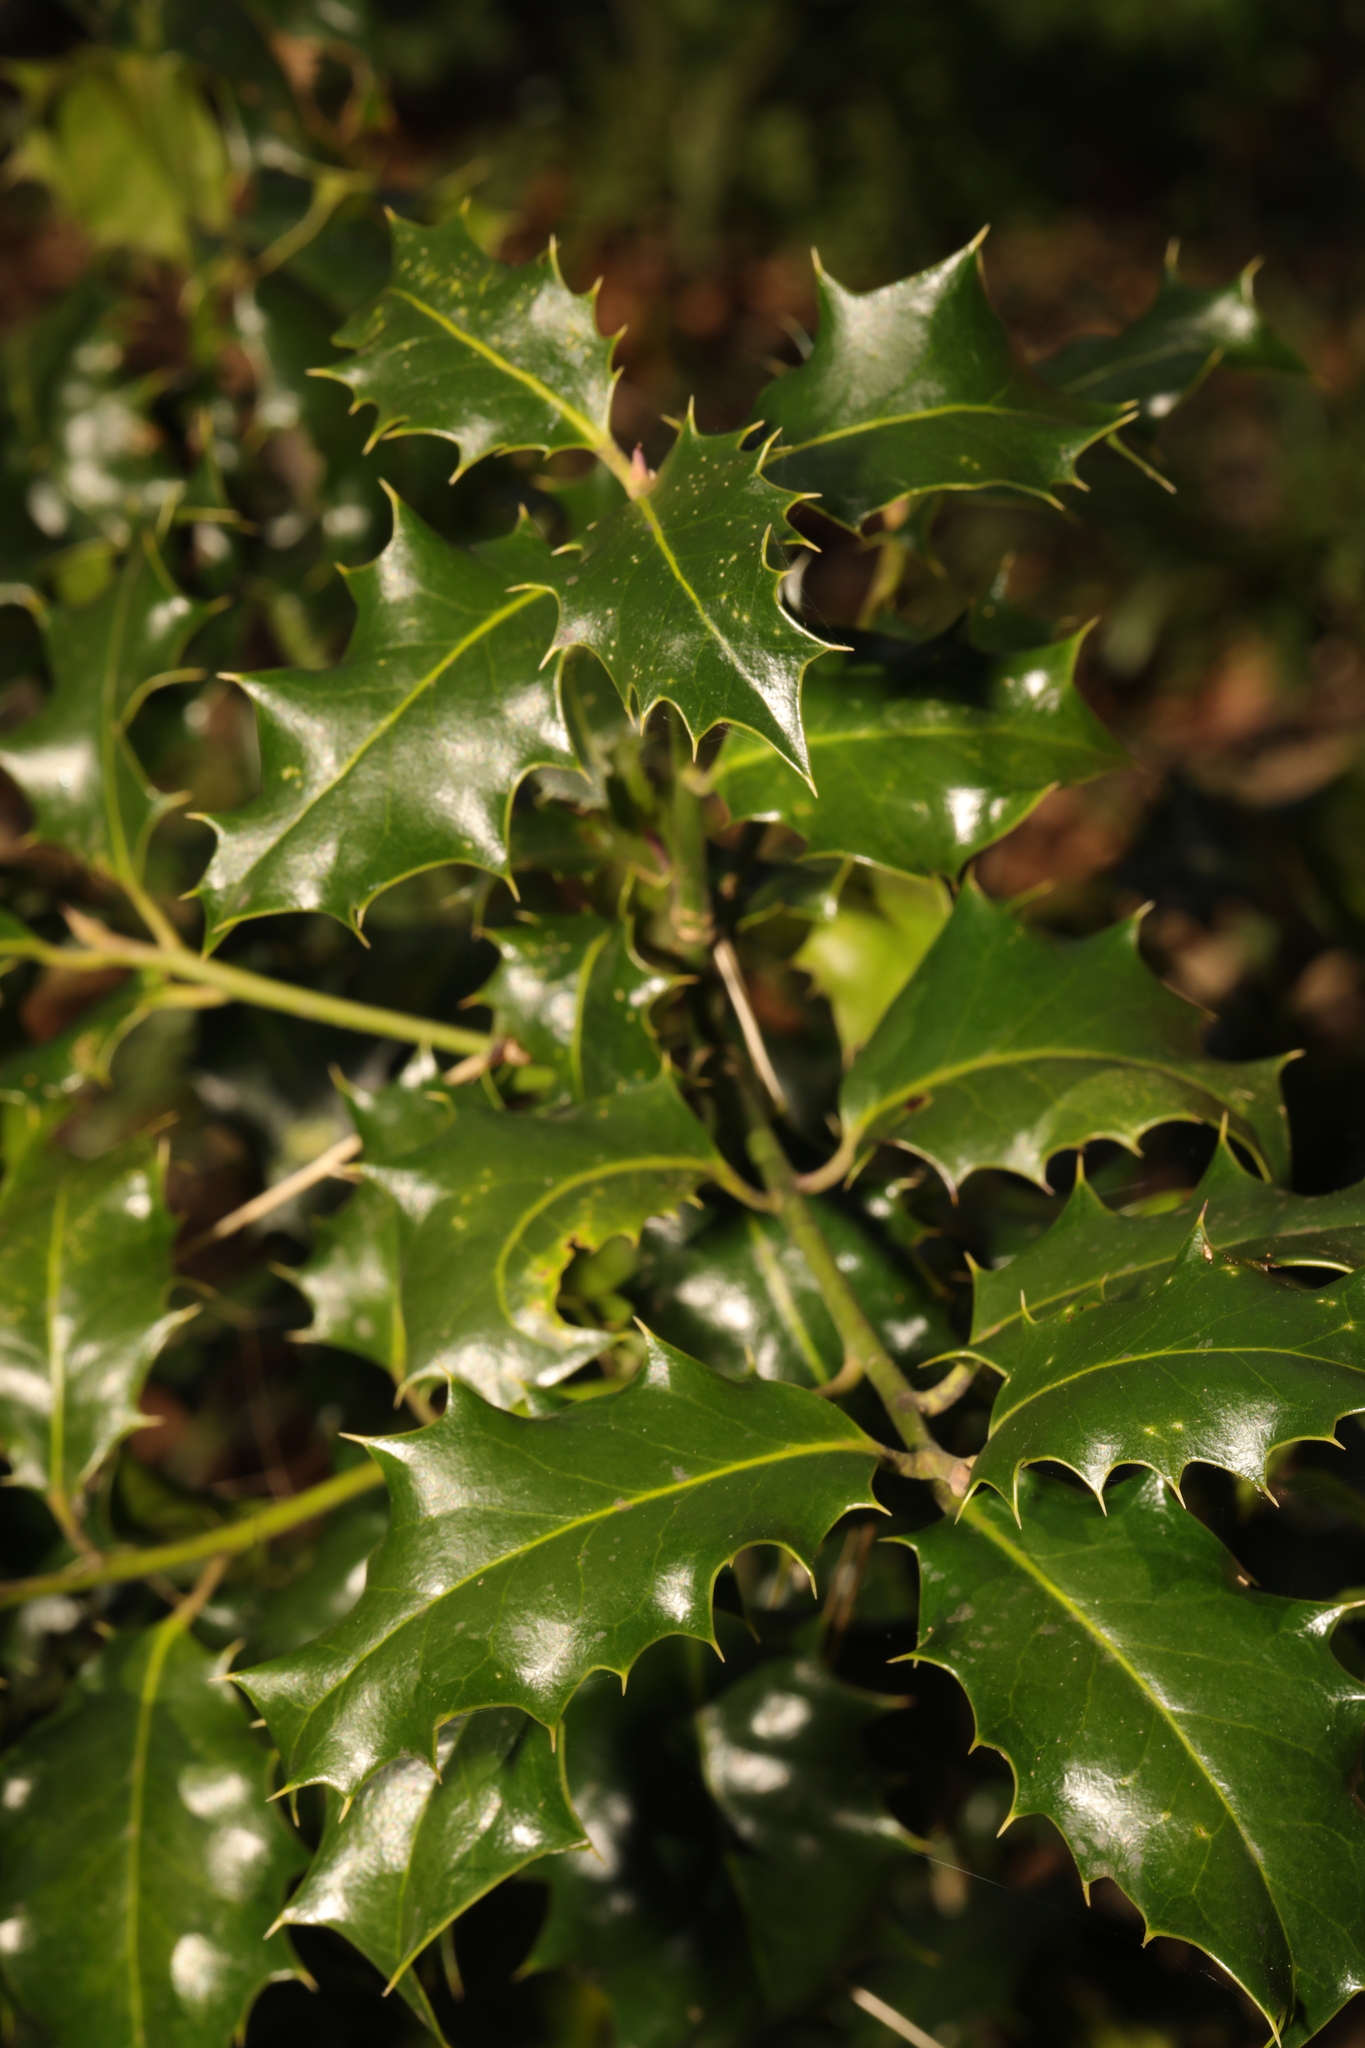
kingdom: Plantae
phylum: Tracheophyta
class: Magnoliopsida
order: Aquifoliales
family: Aquifoliaceae
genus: Ilex
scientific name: Ilex aquifolium
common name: English holly
